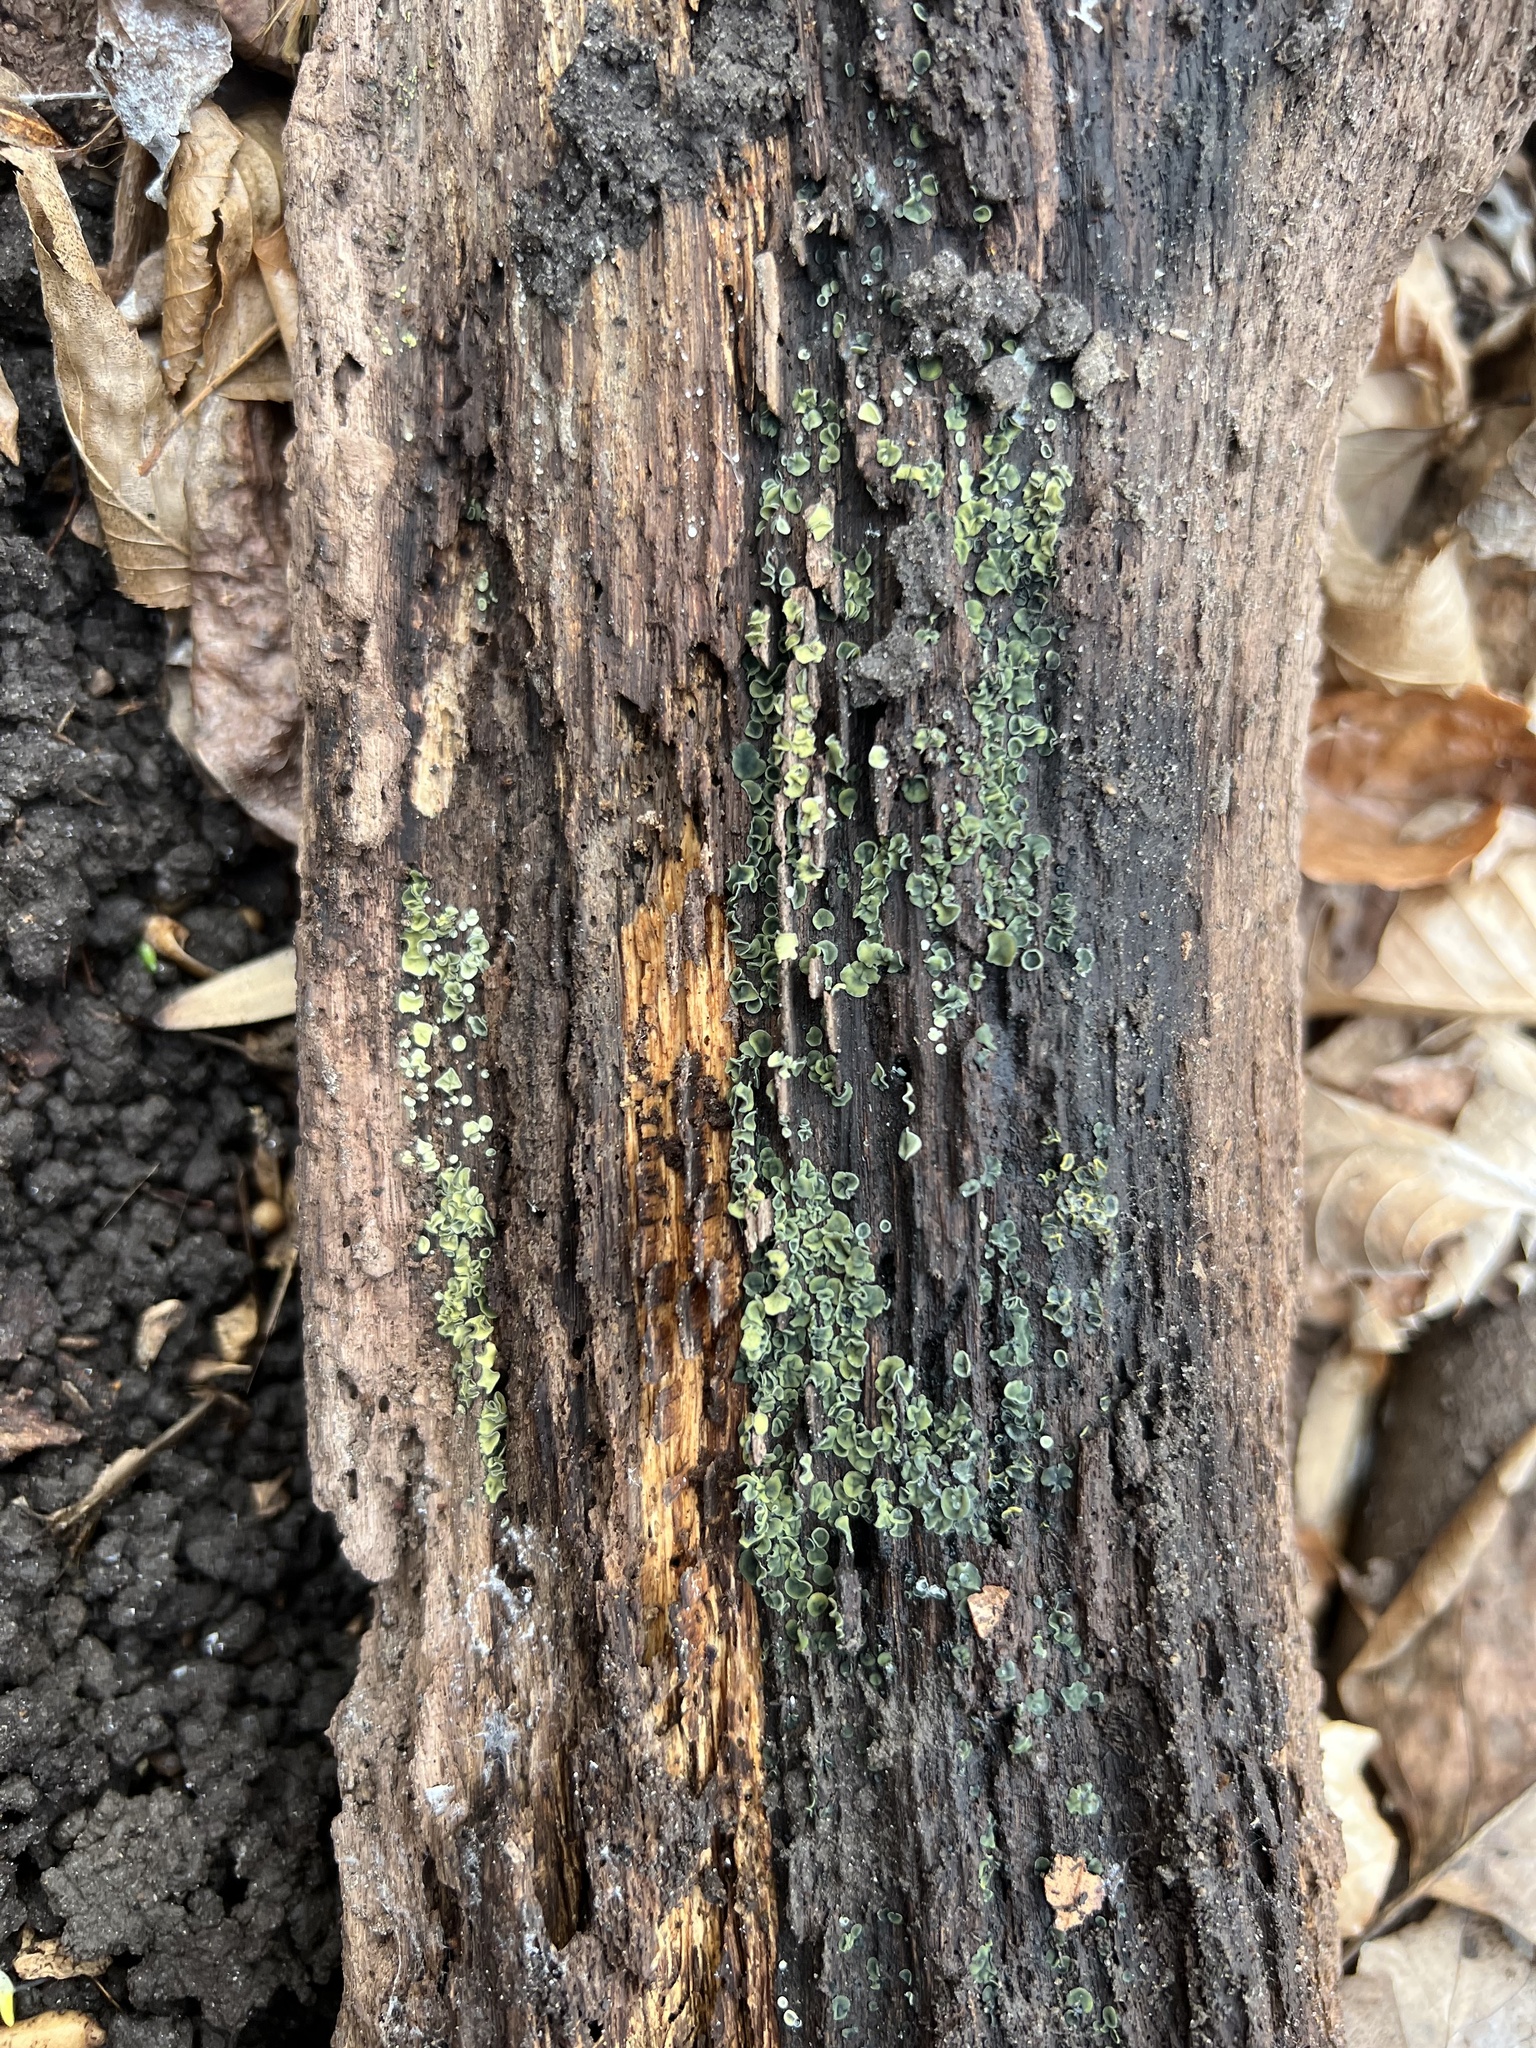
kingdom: Fungi
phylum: Ascomycota
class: Leotiomycetes
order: Helotiales
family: Chlorospleniaceae
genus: Chlorosplenium
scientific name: Chlorosplenium chlora
